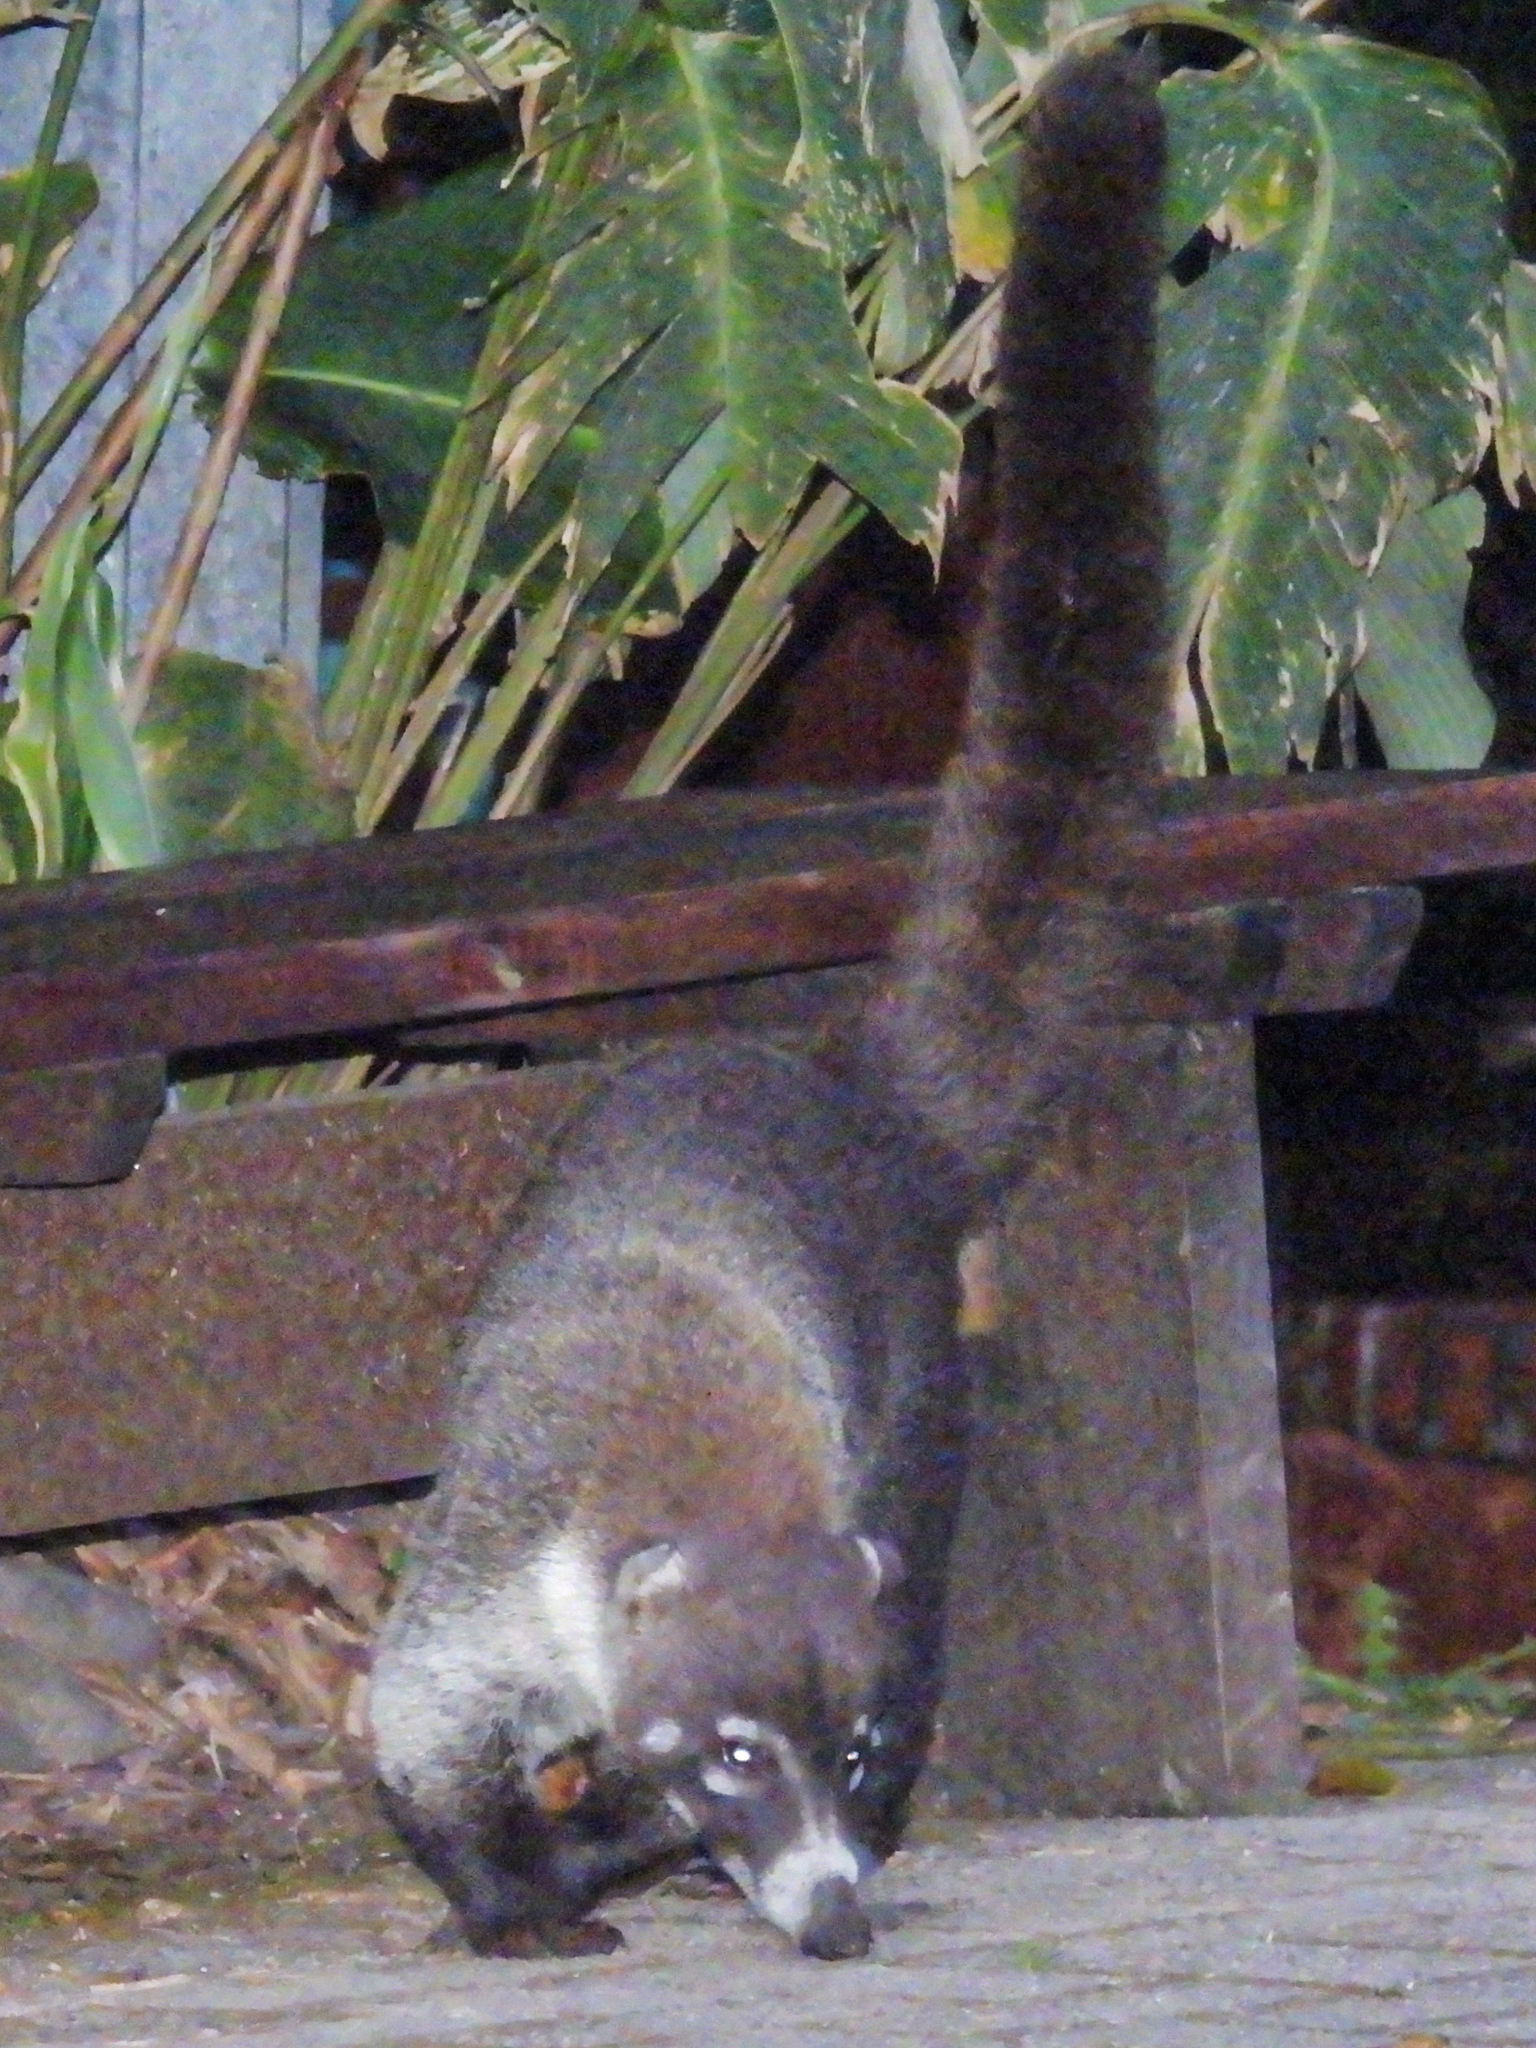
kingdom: Animalia
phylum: Chordata
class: Mammalia
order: Carnivora
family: Procyonidae
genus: Nasua
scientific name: Nasua narica
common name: White-nosed coati
